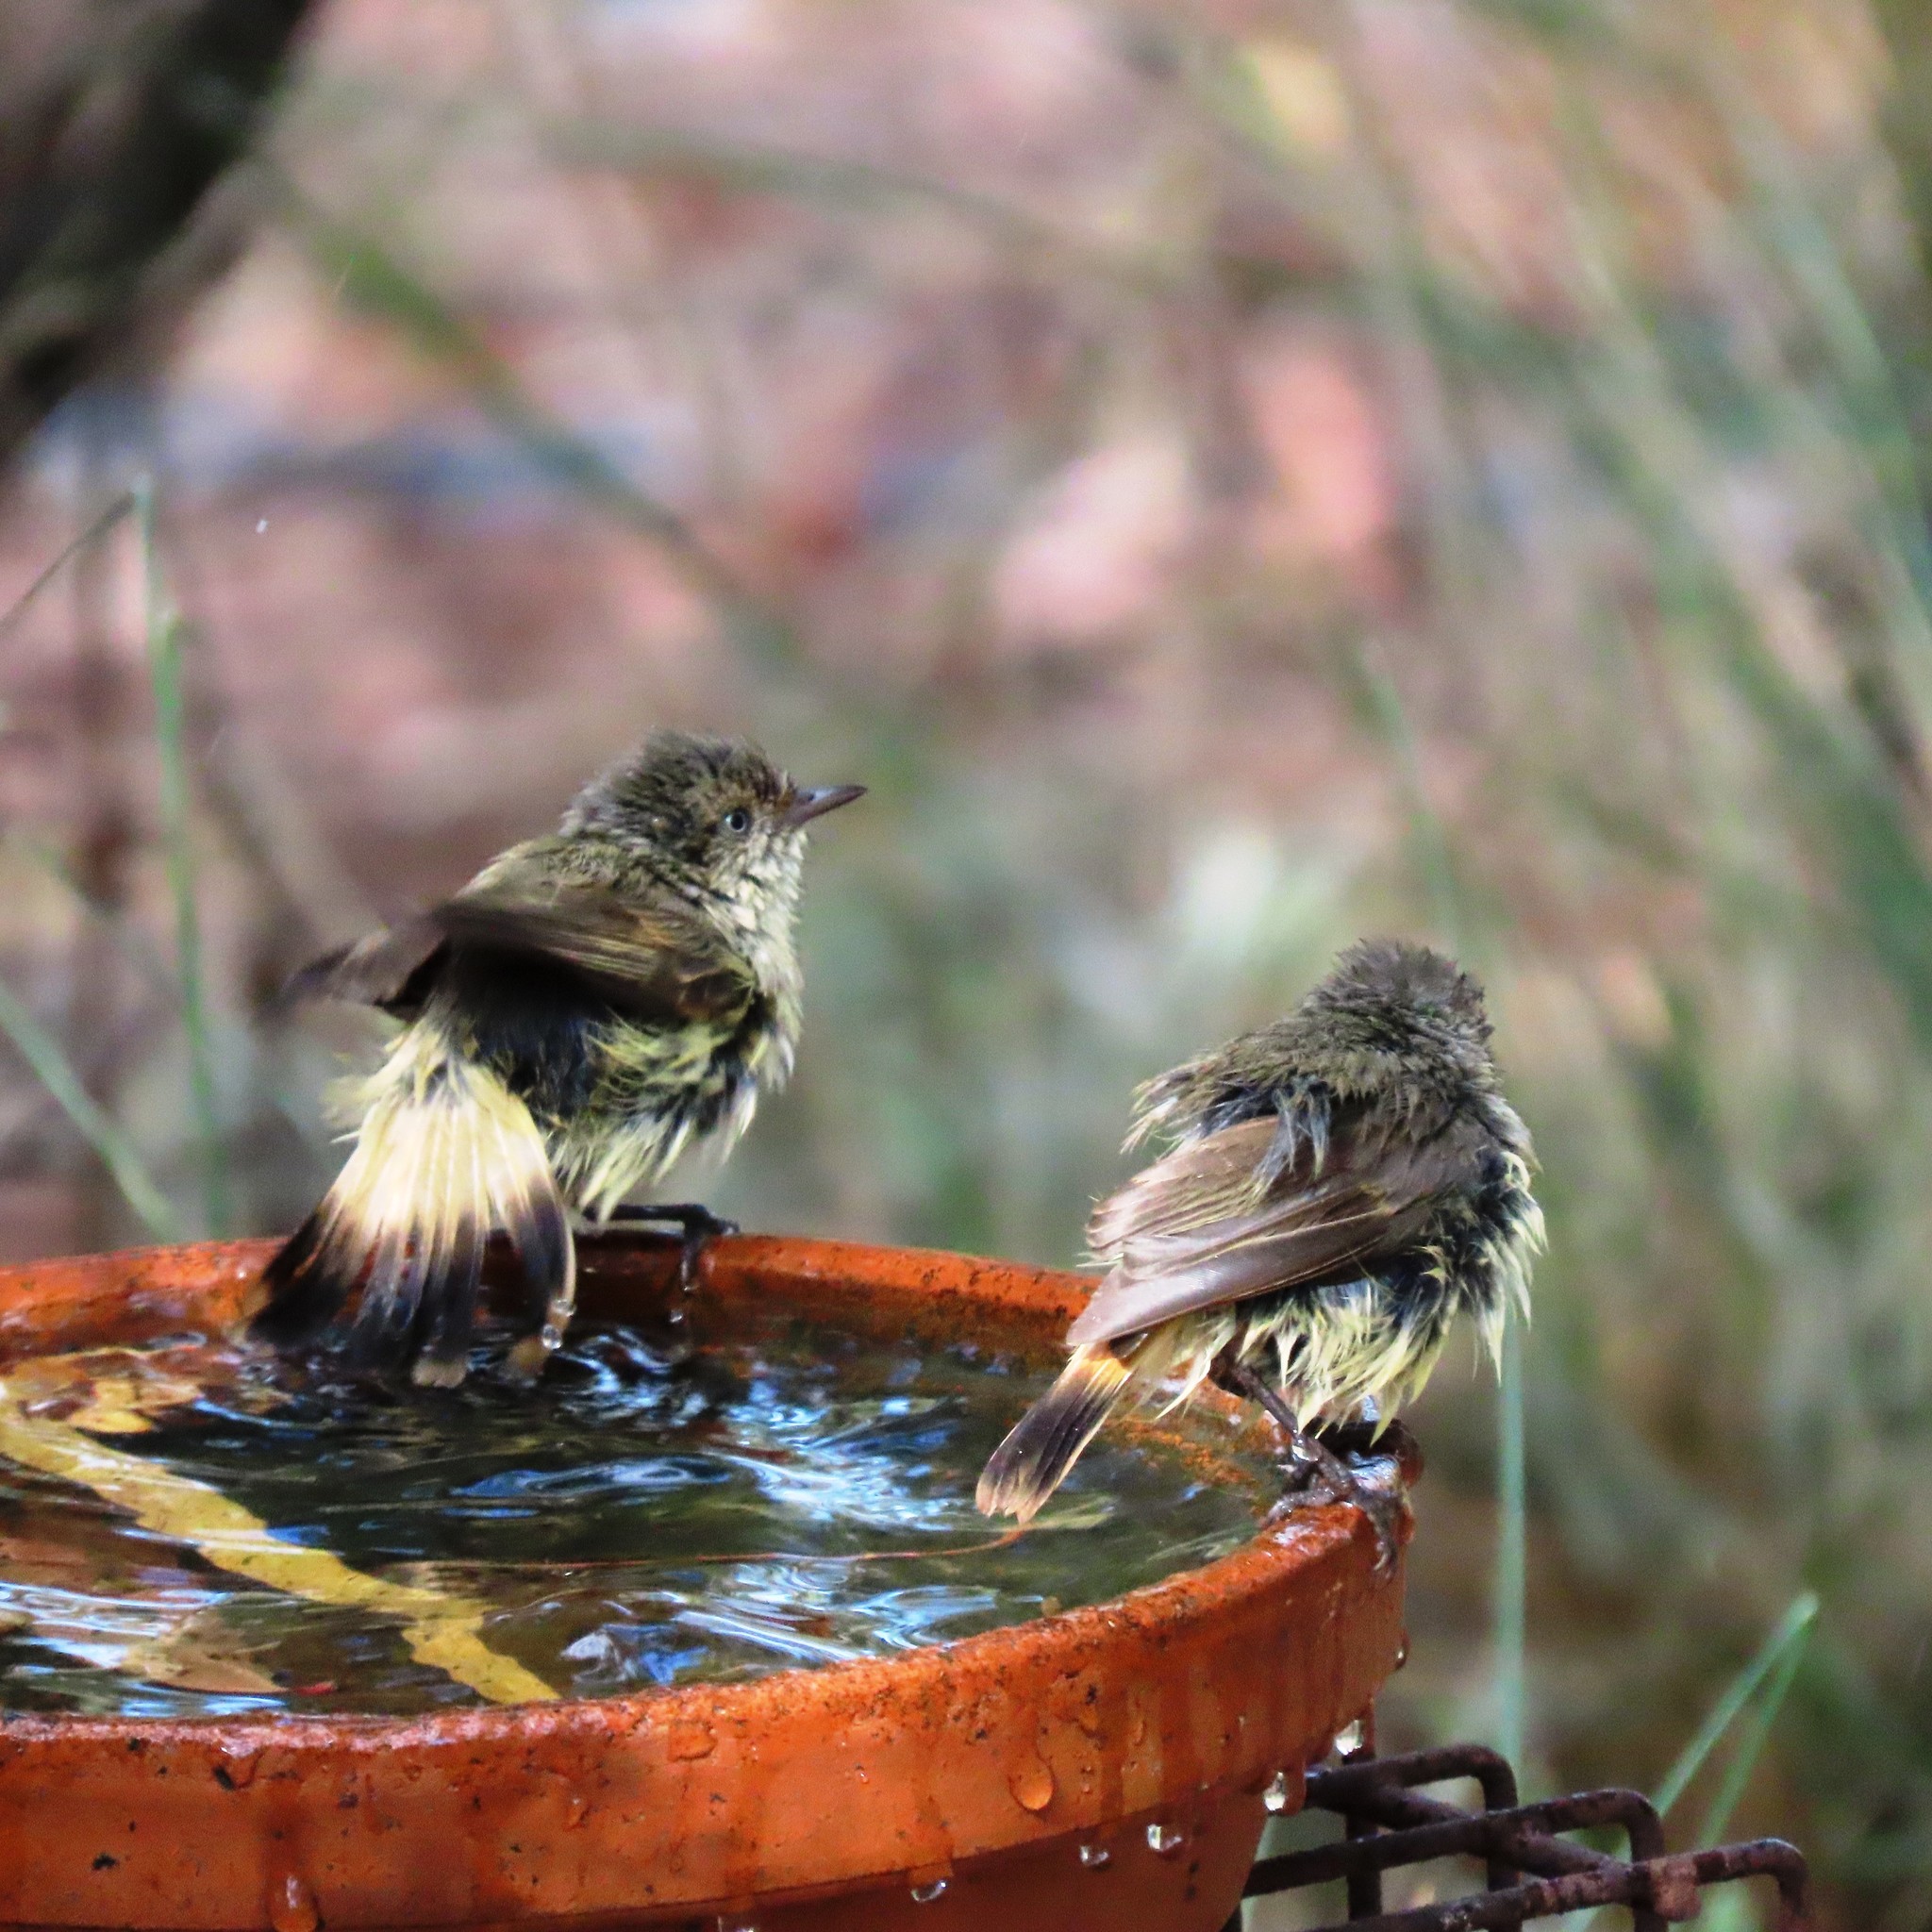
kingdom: Animalia
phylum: Chordata
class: Aves
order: Passeriformes
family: Acanthizidae
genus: Acanthiza
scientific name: Acanthiza reguloides
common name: Buff-rumped thornbill
